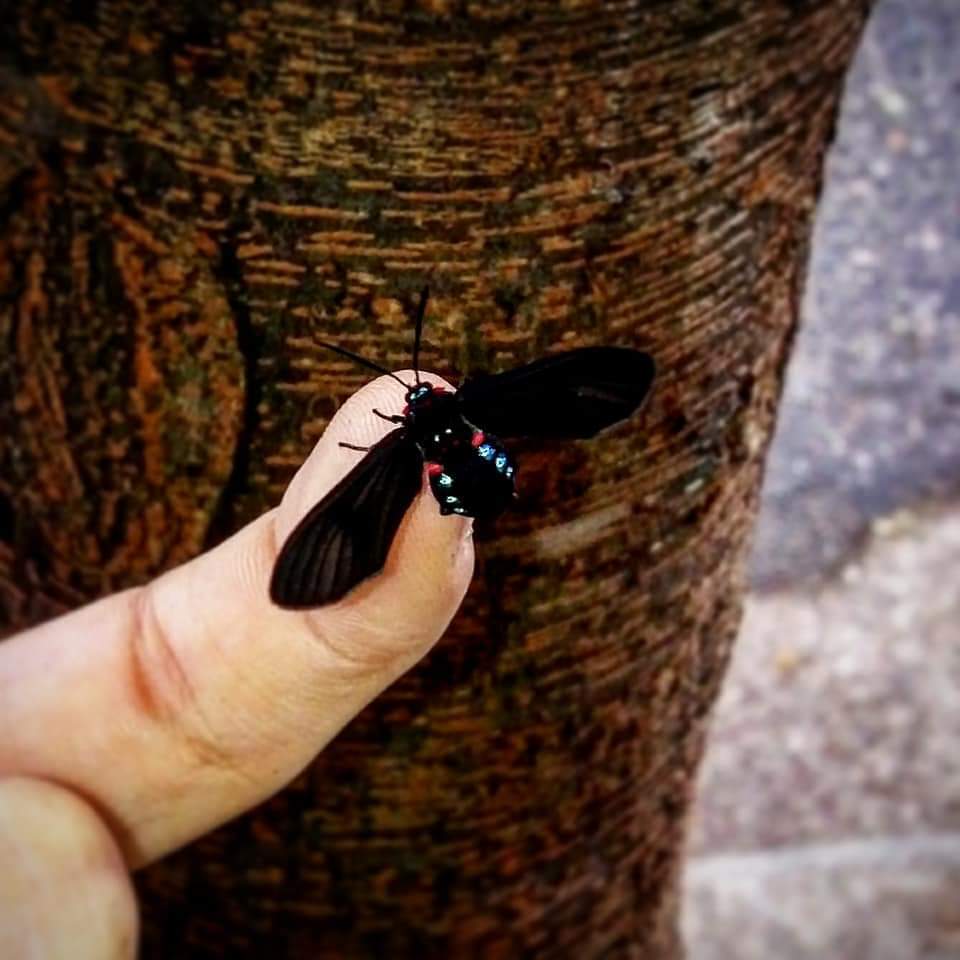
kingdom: Animalia
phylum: Arthropoda
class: Insecta
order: Lepidoptera
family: Erebidae
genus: Saurita
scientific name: Saurita cassandra
